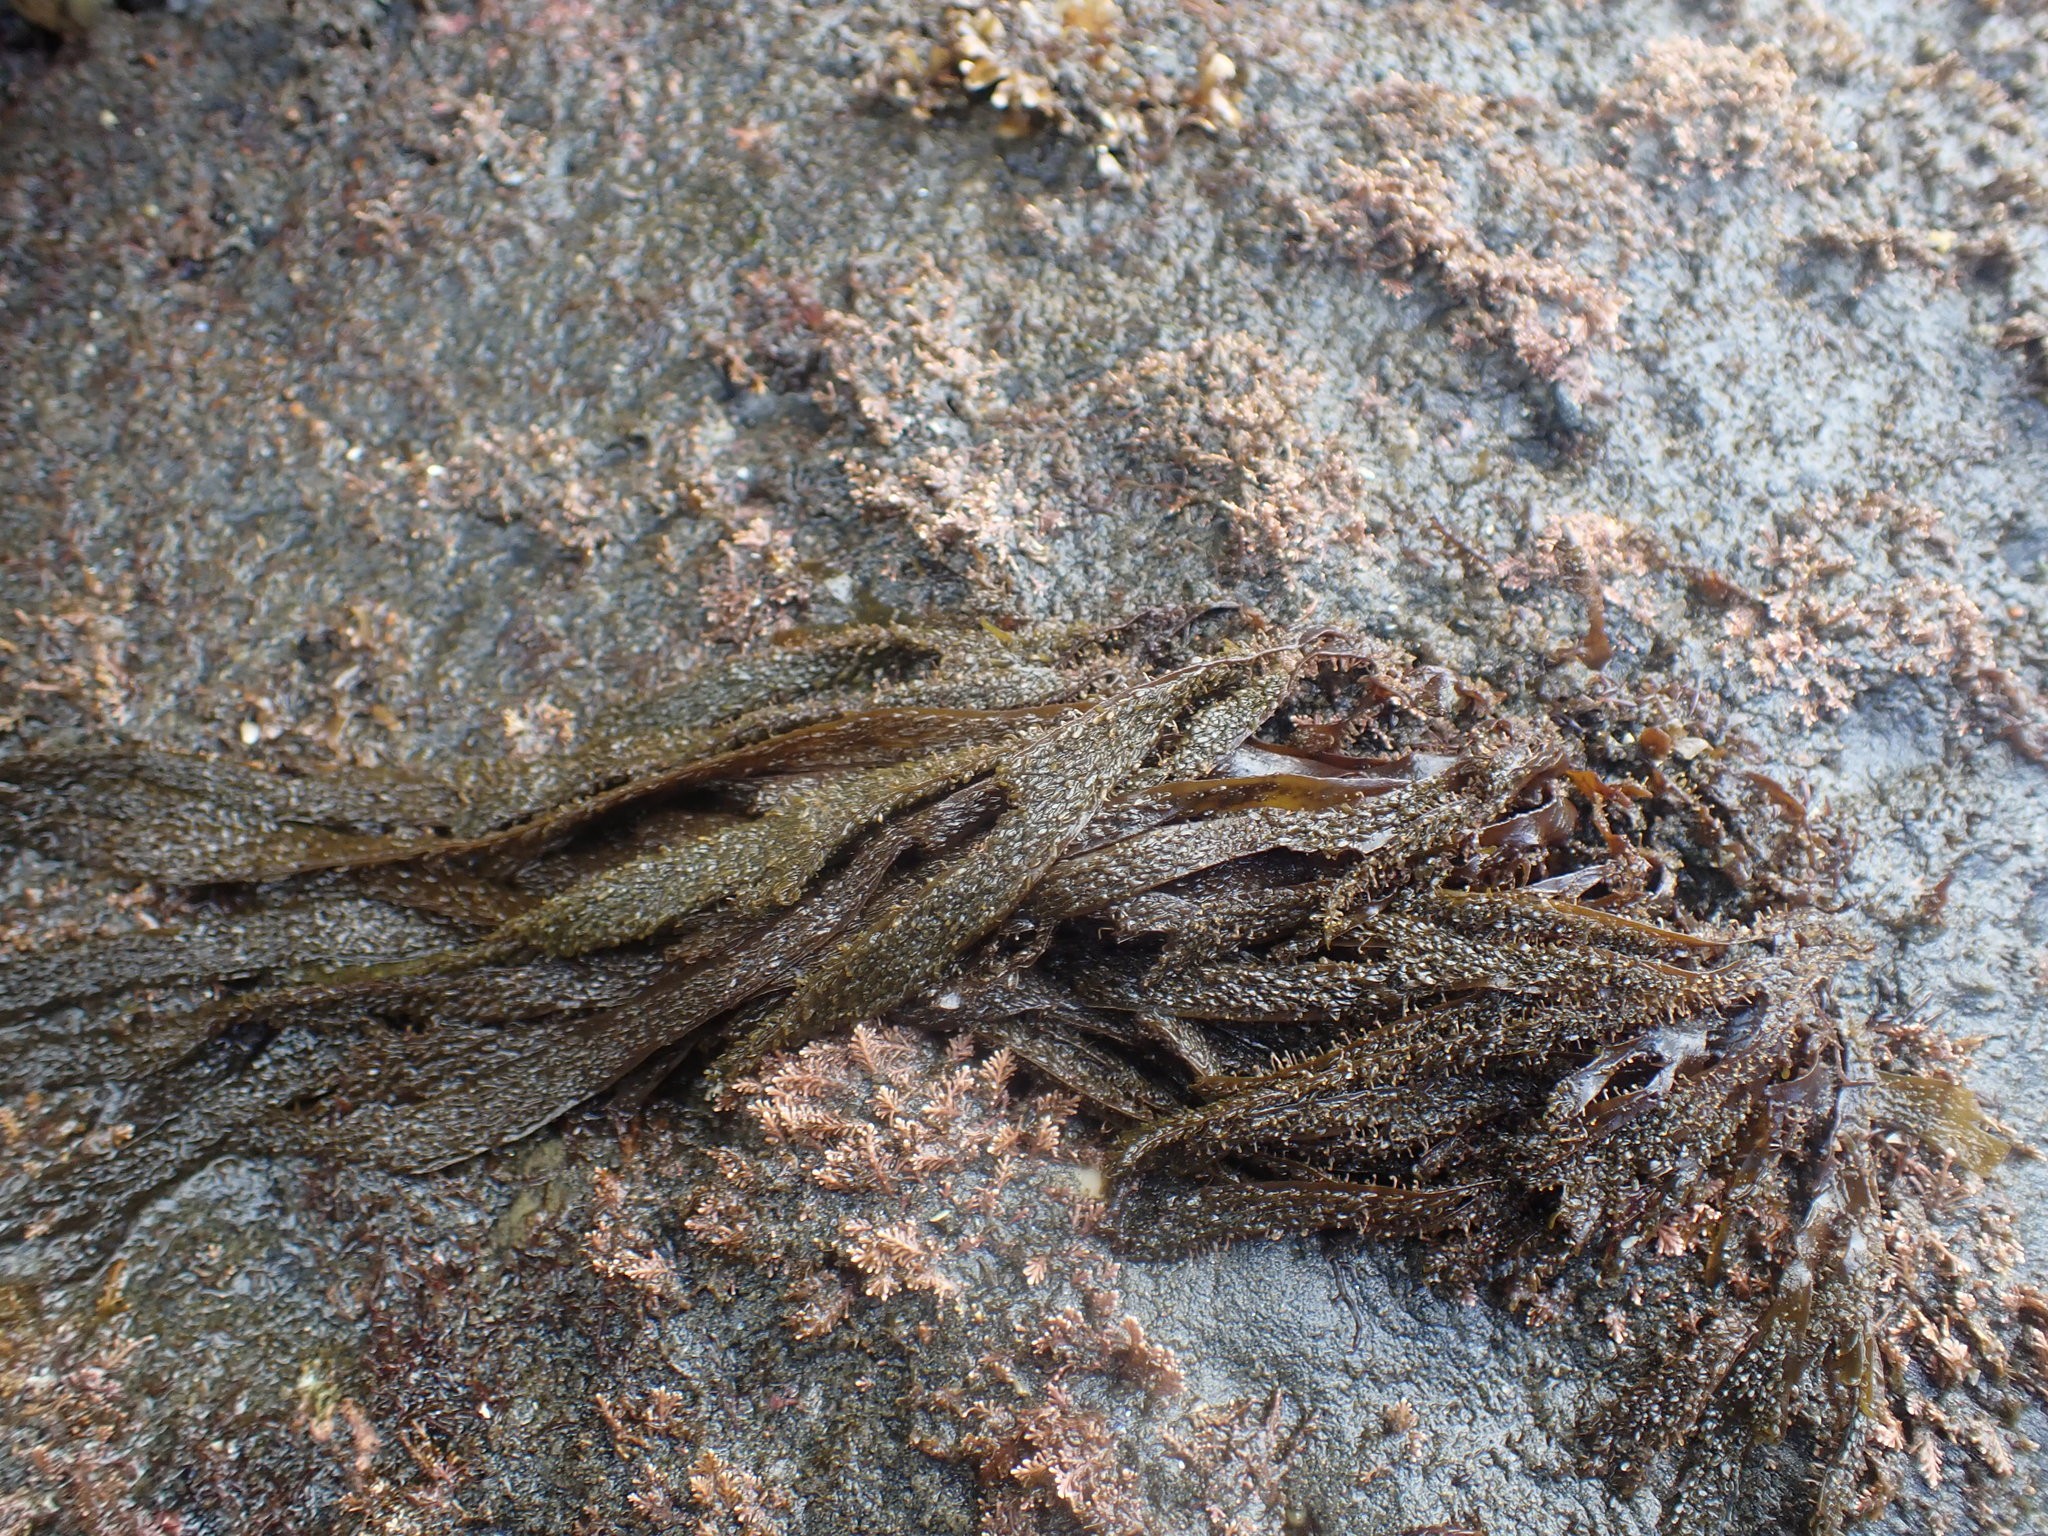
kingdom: Chromista
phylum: Ochrophyta
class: Phaeophyceae
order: Dictyotales
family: Dictyotaceae
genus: Dictyota
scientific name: Dictyota kunthii
